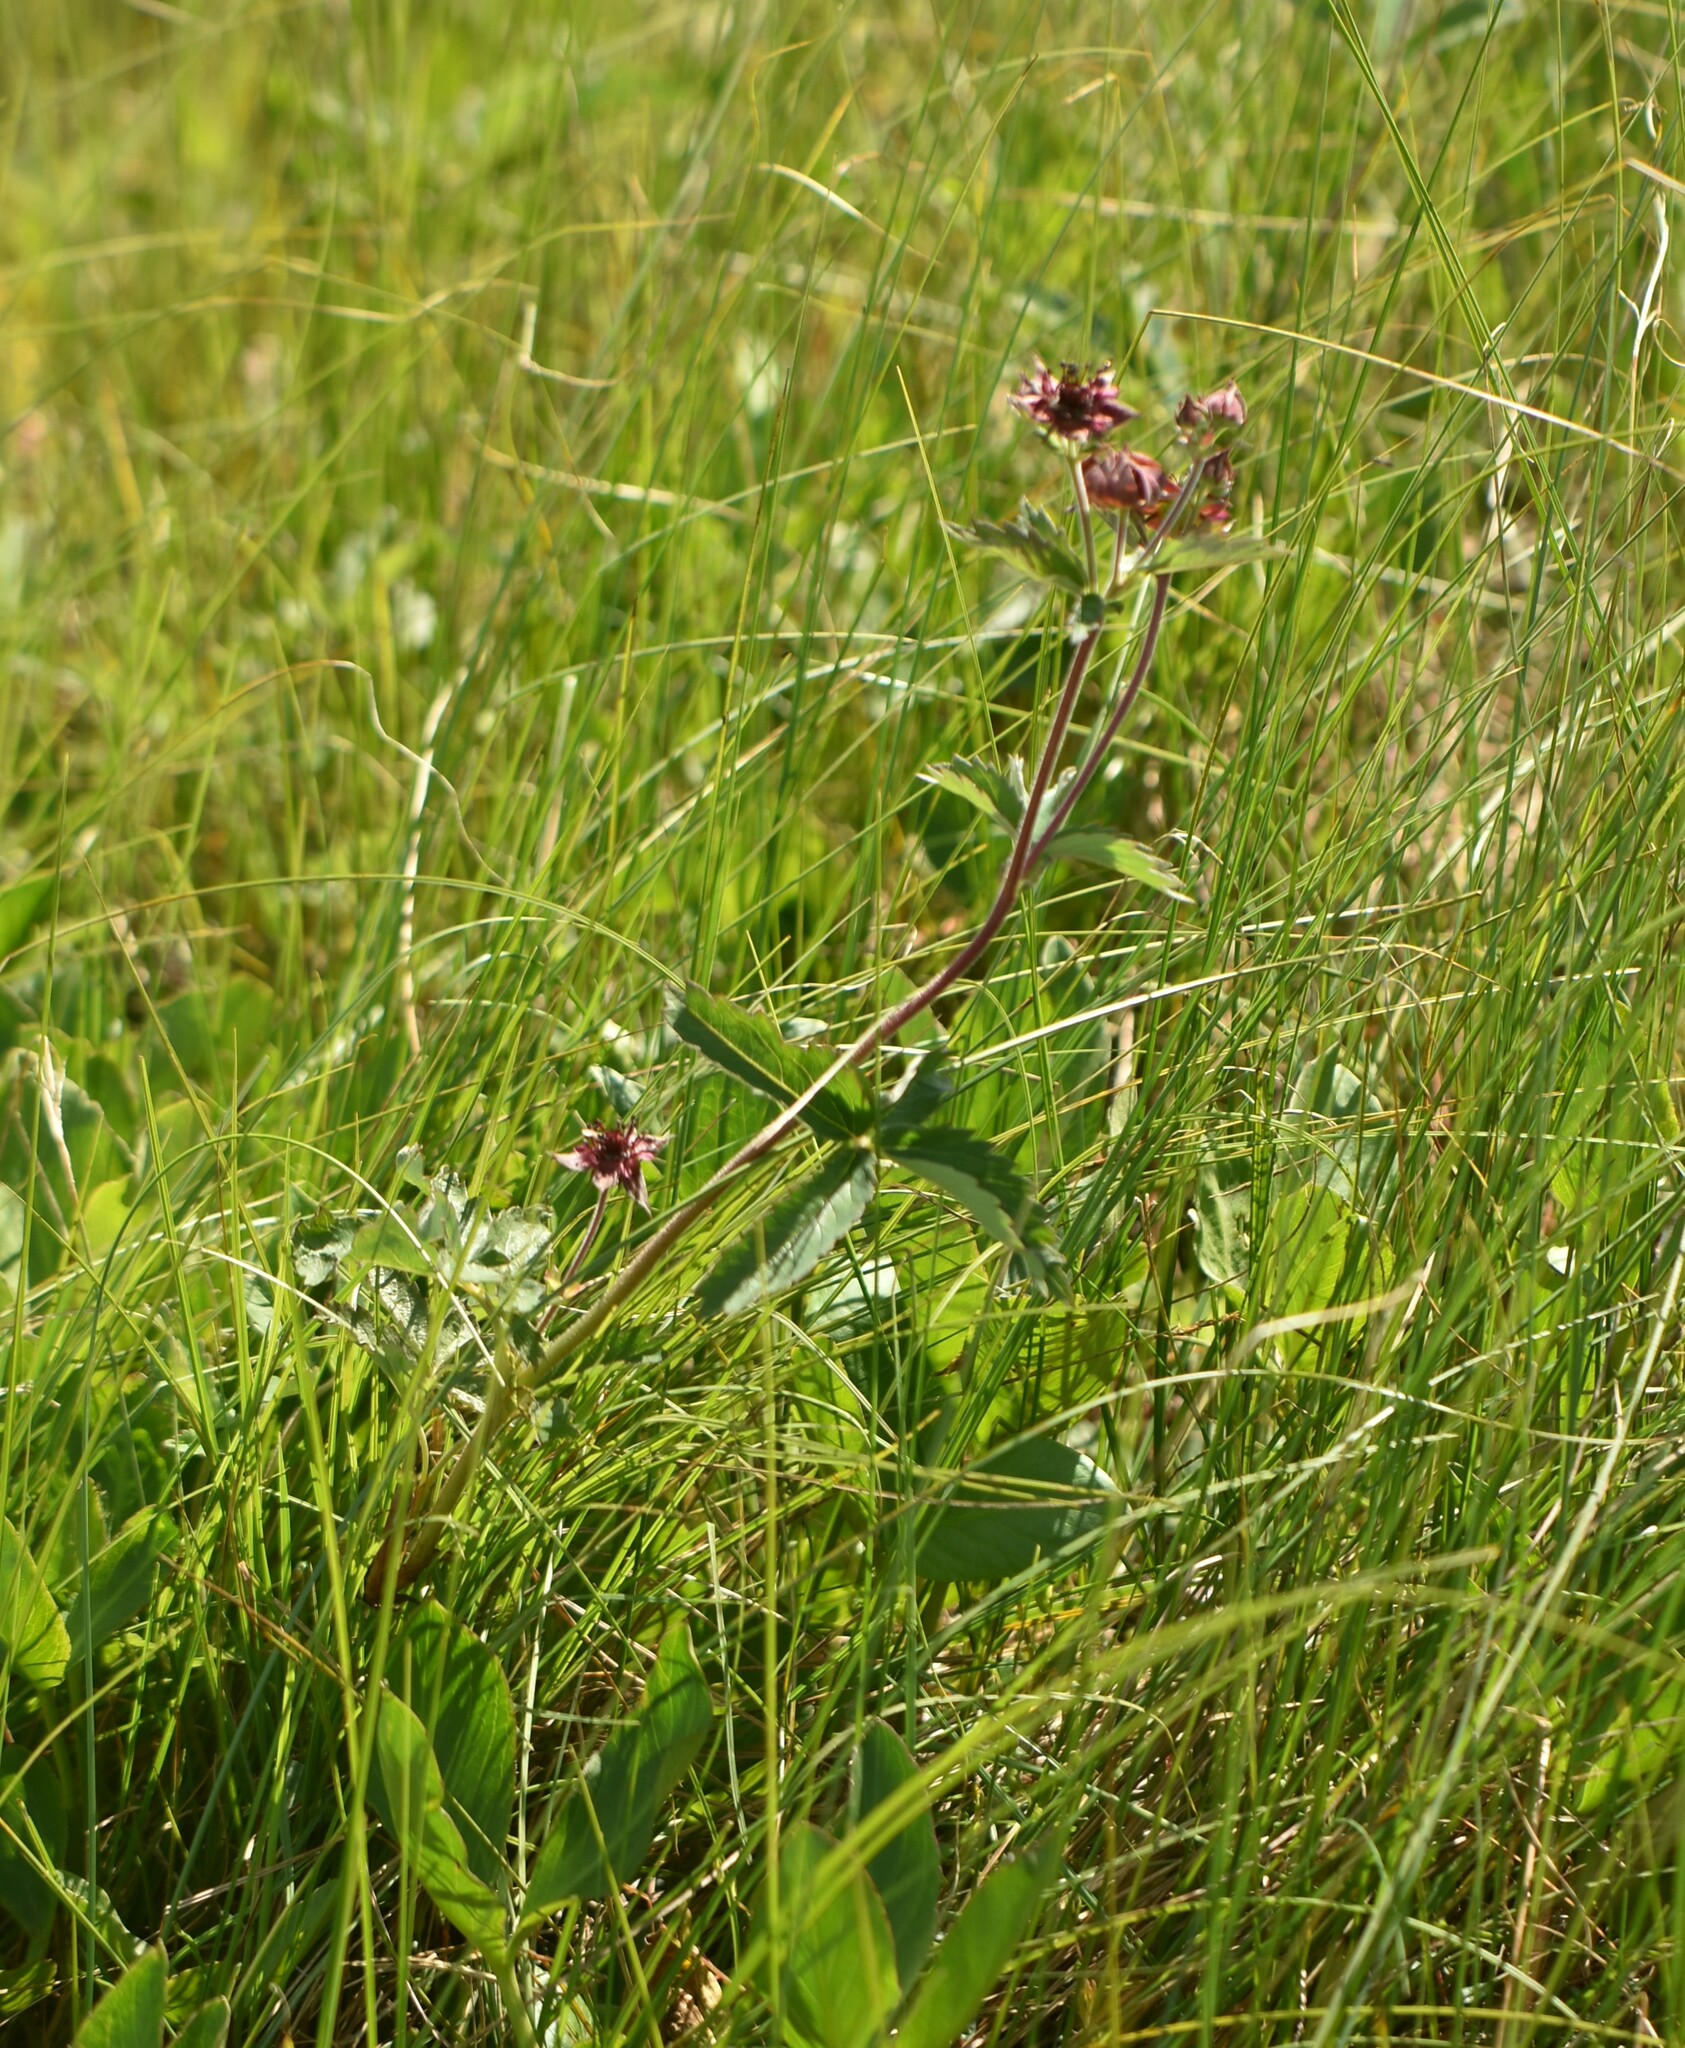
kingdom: Plantae
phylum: Tracheophyta
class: Magnoliopsida
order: Rosales
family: Rosaceae
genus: Comarum
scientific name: Comarum palustre
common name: Marsh cinquefoil
